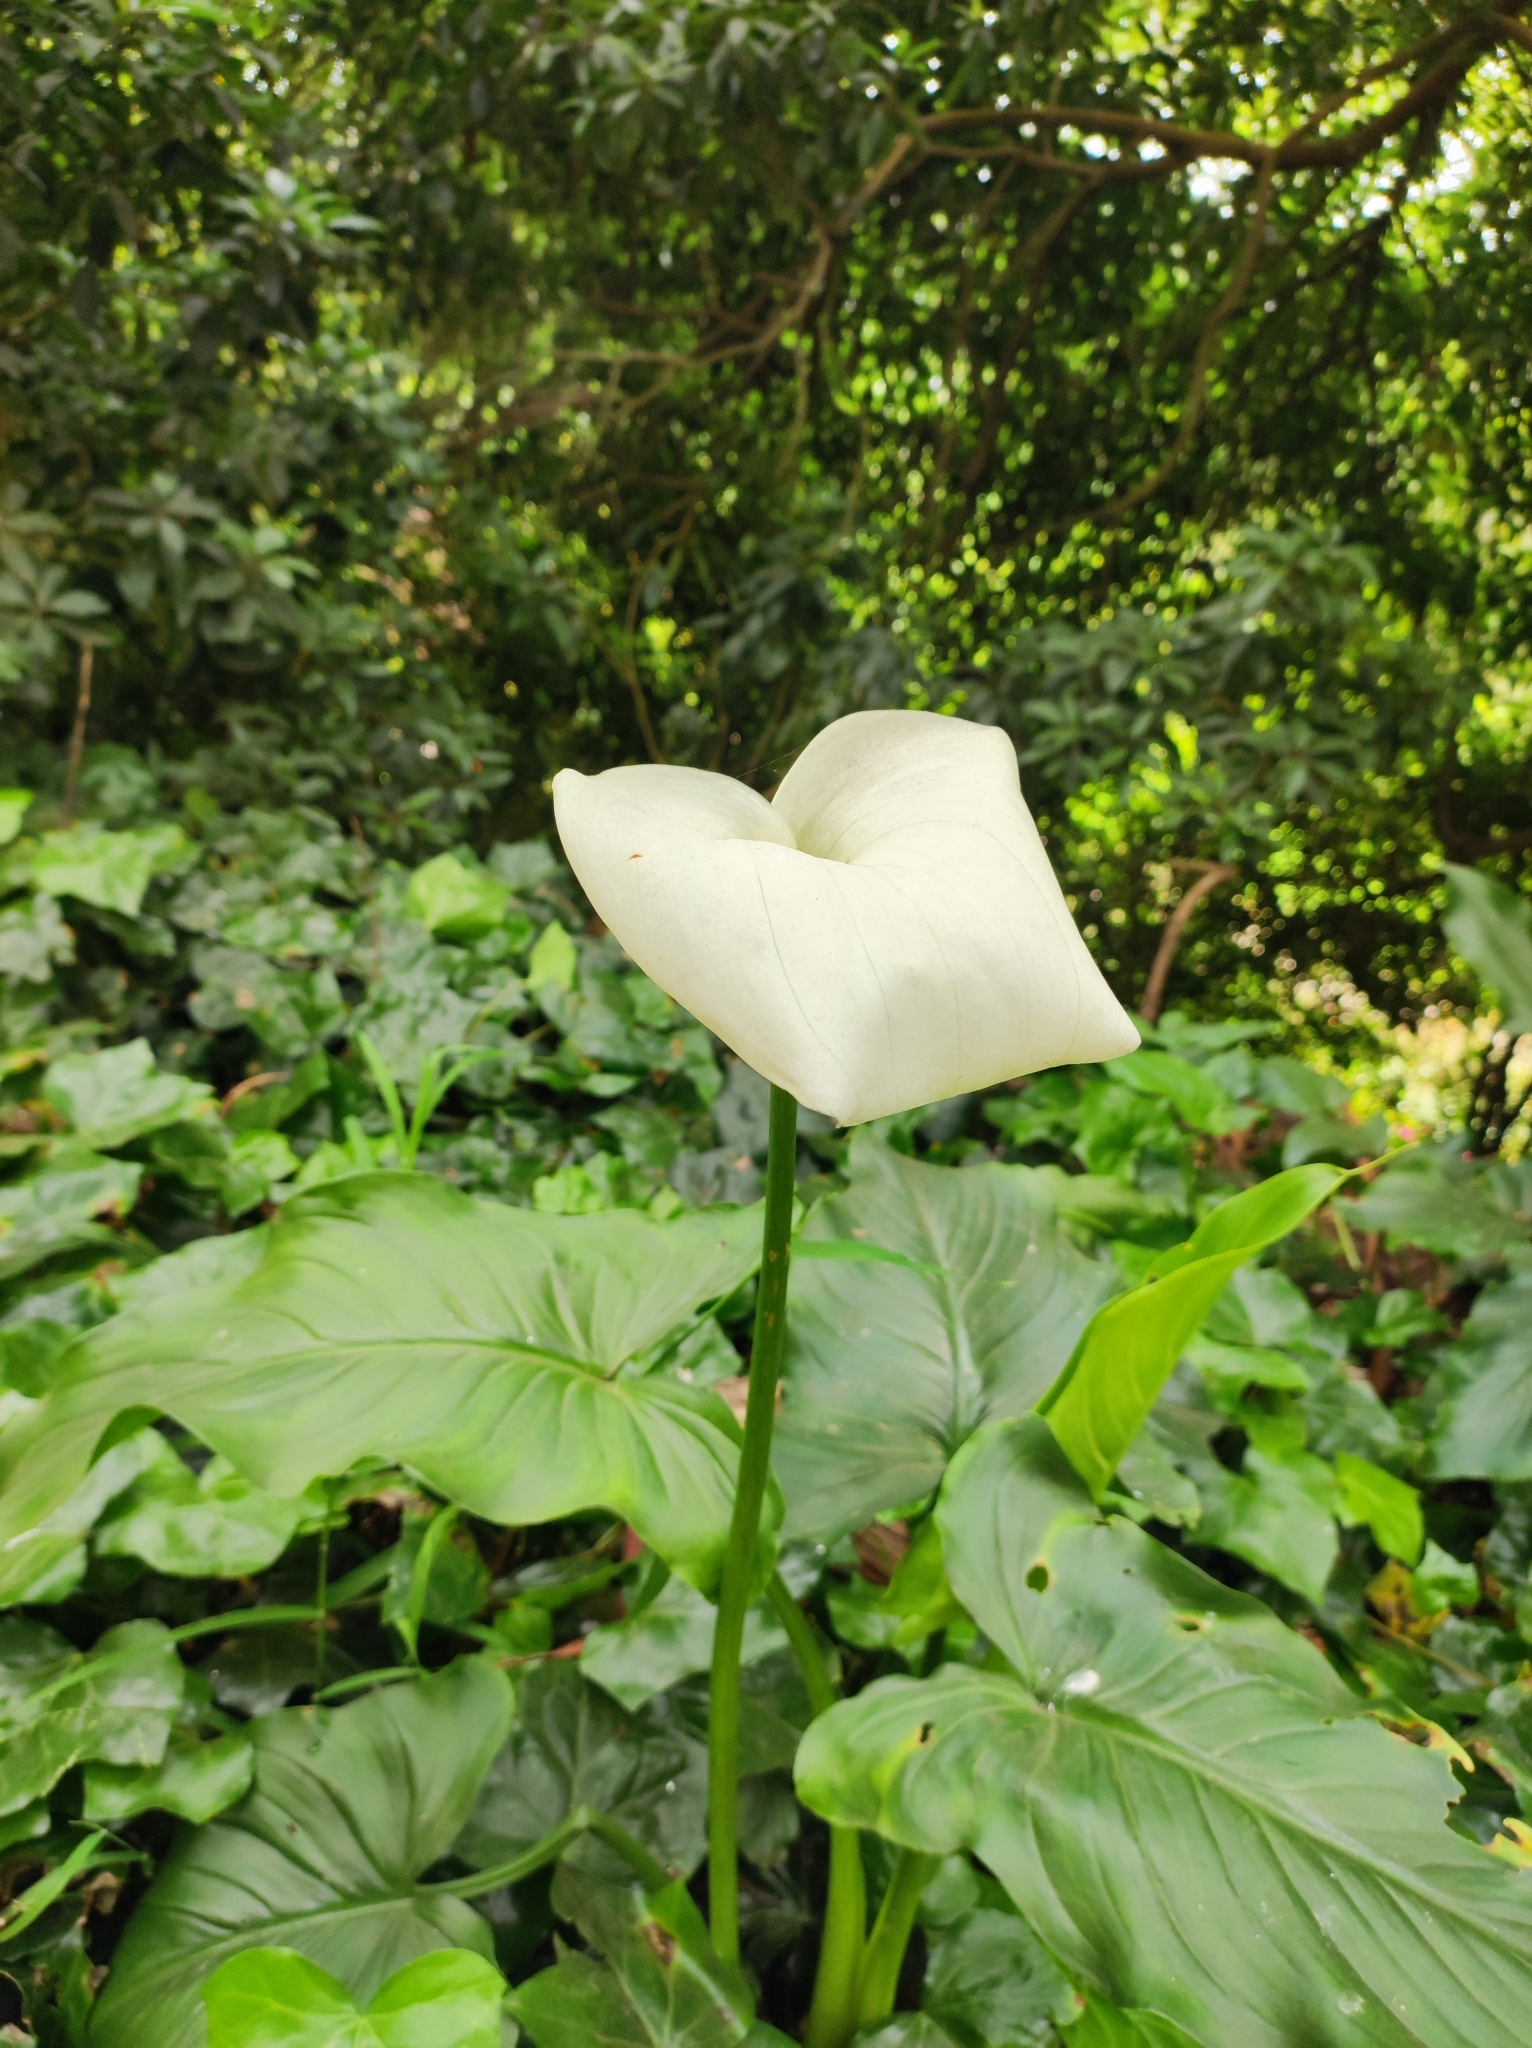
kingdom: Plantae
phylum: Tracheophyta
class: Liliopsida
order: Alismatales
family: Araceae
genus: Zantedeschia
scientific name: Zantedeschia aethiopica
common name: Altar-lily
